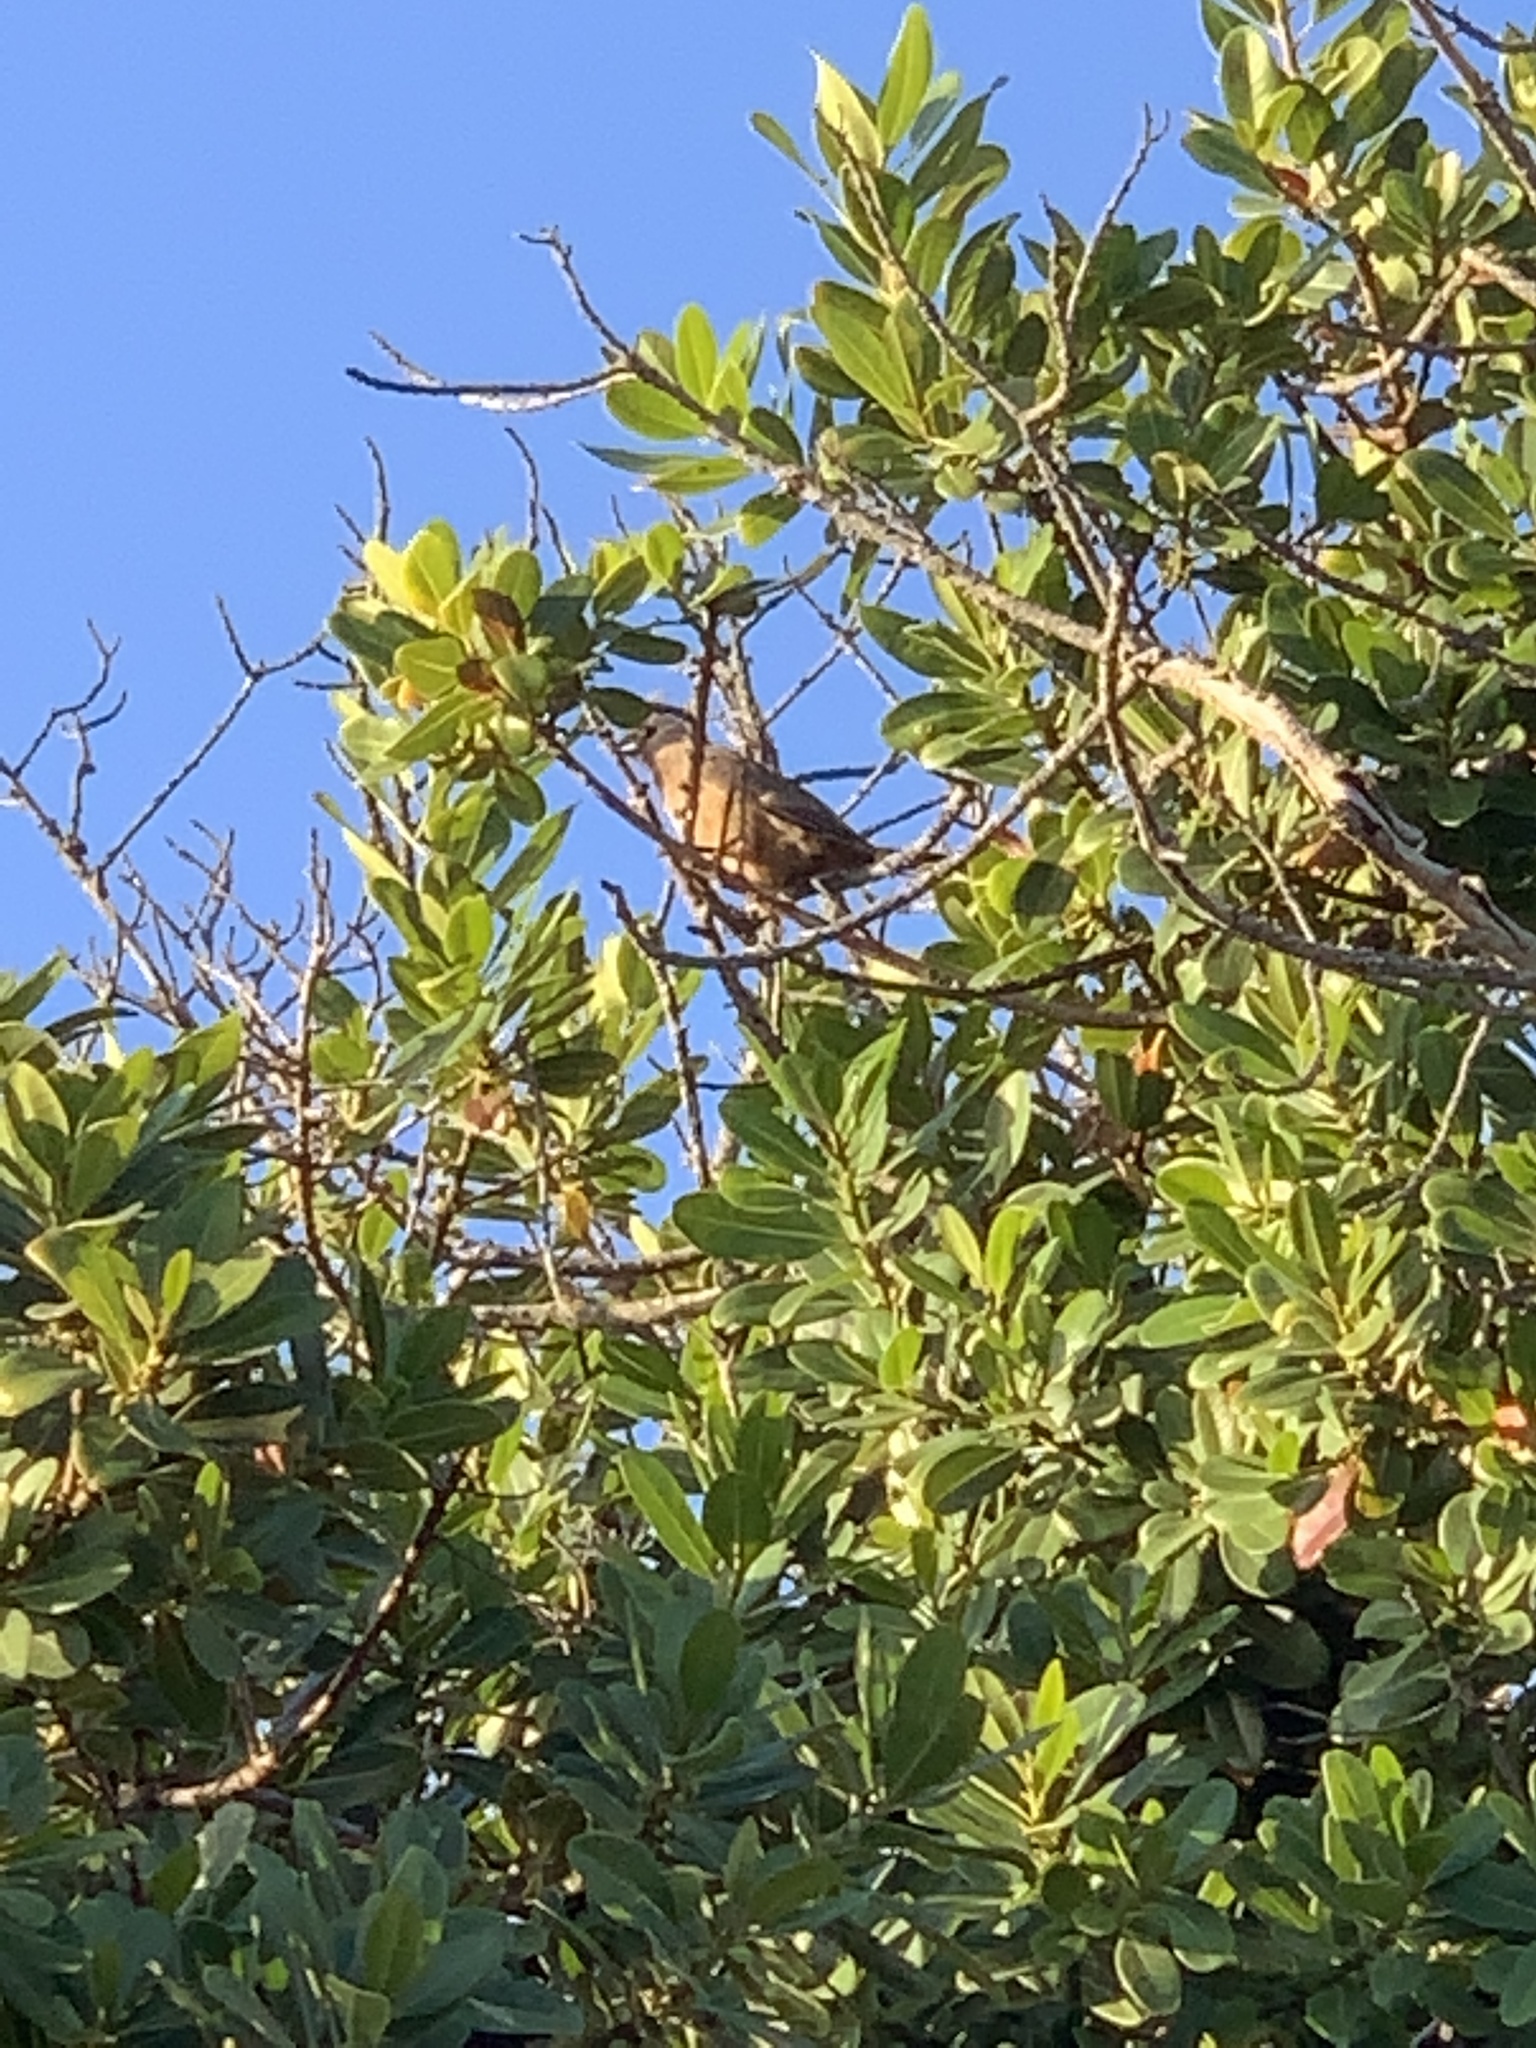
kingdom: Animalia
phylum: Chordata
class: Aves
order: Coliiformes
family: Coliidae
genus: Colius
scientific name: Colius striatus
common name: Speckled mousebird
